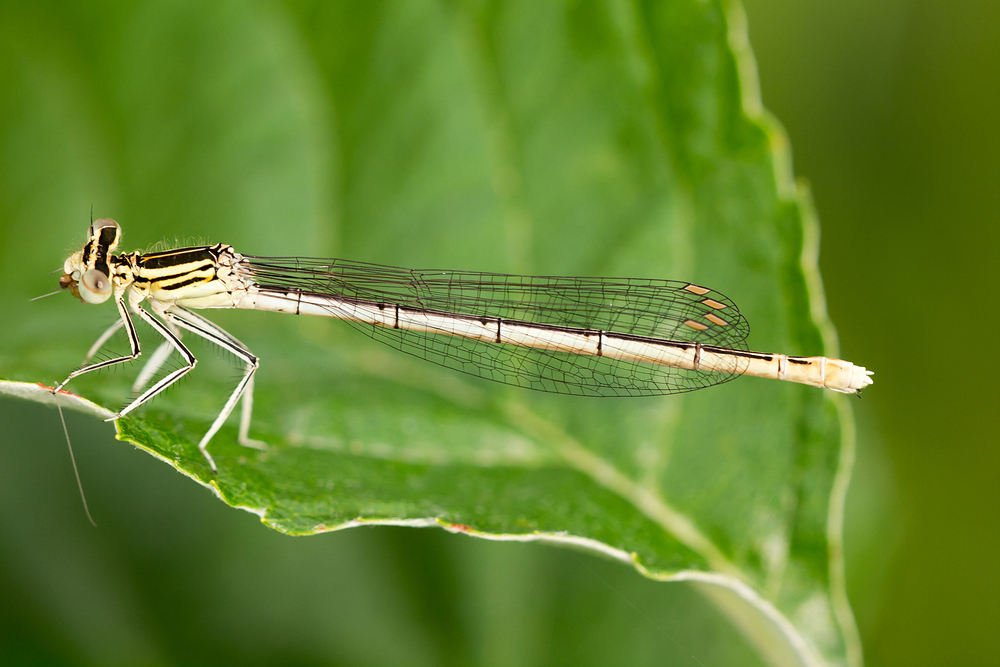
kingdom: Animalia
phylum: Arthropoda
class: Insecta
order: Odonata
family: Platycnemididae
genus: Platycnemis
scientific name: Platycnemis pennipes
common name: White-legged damselfly
